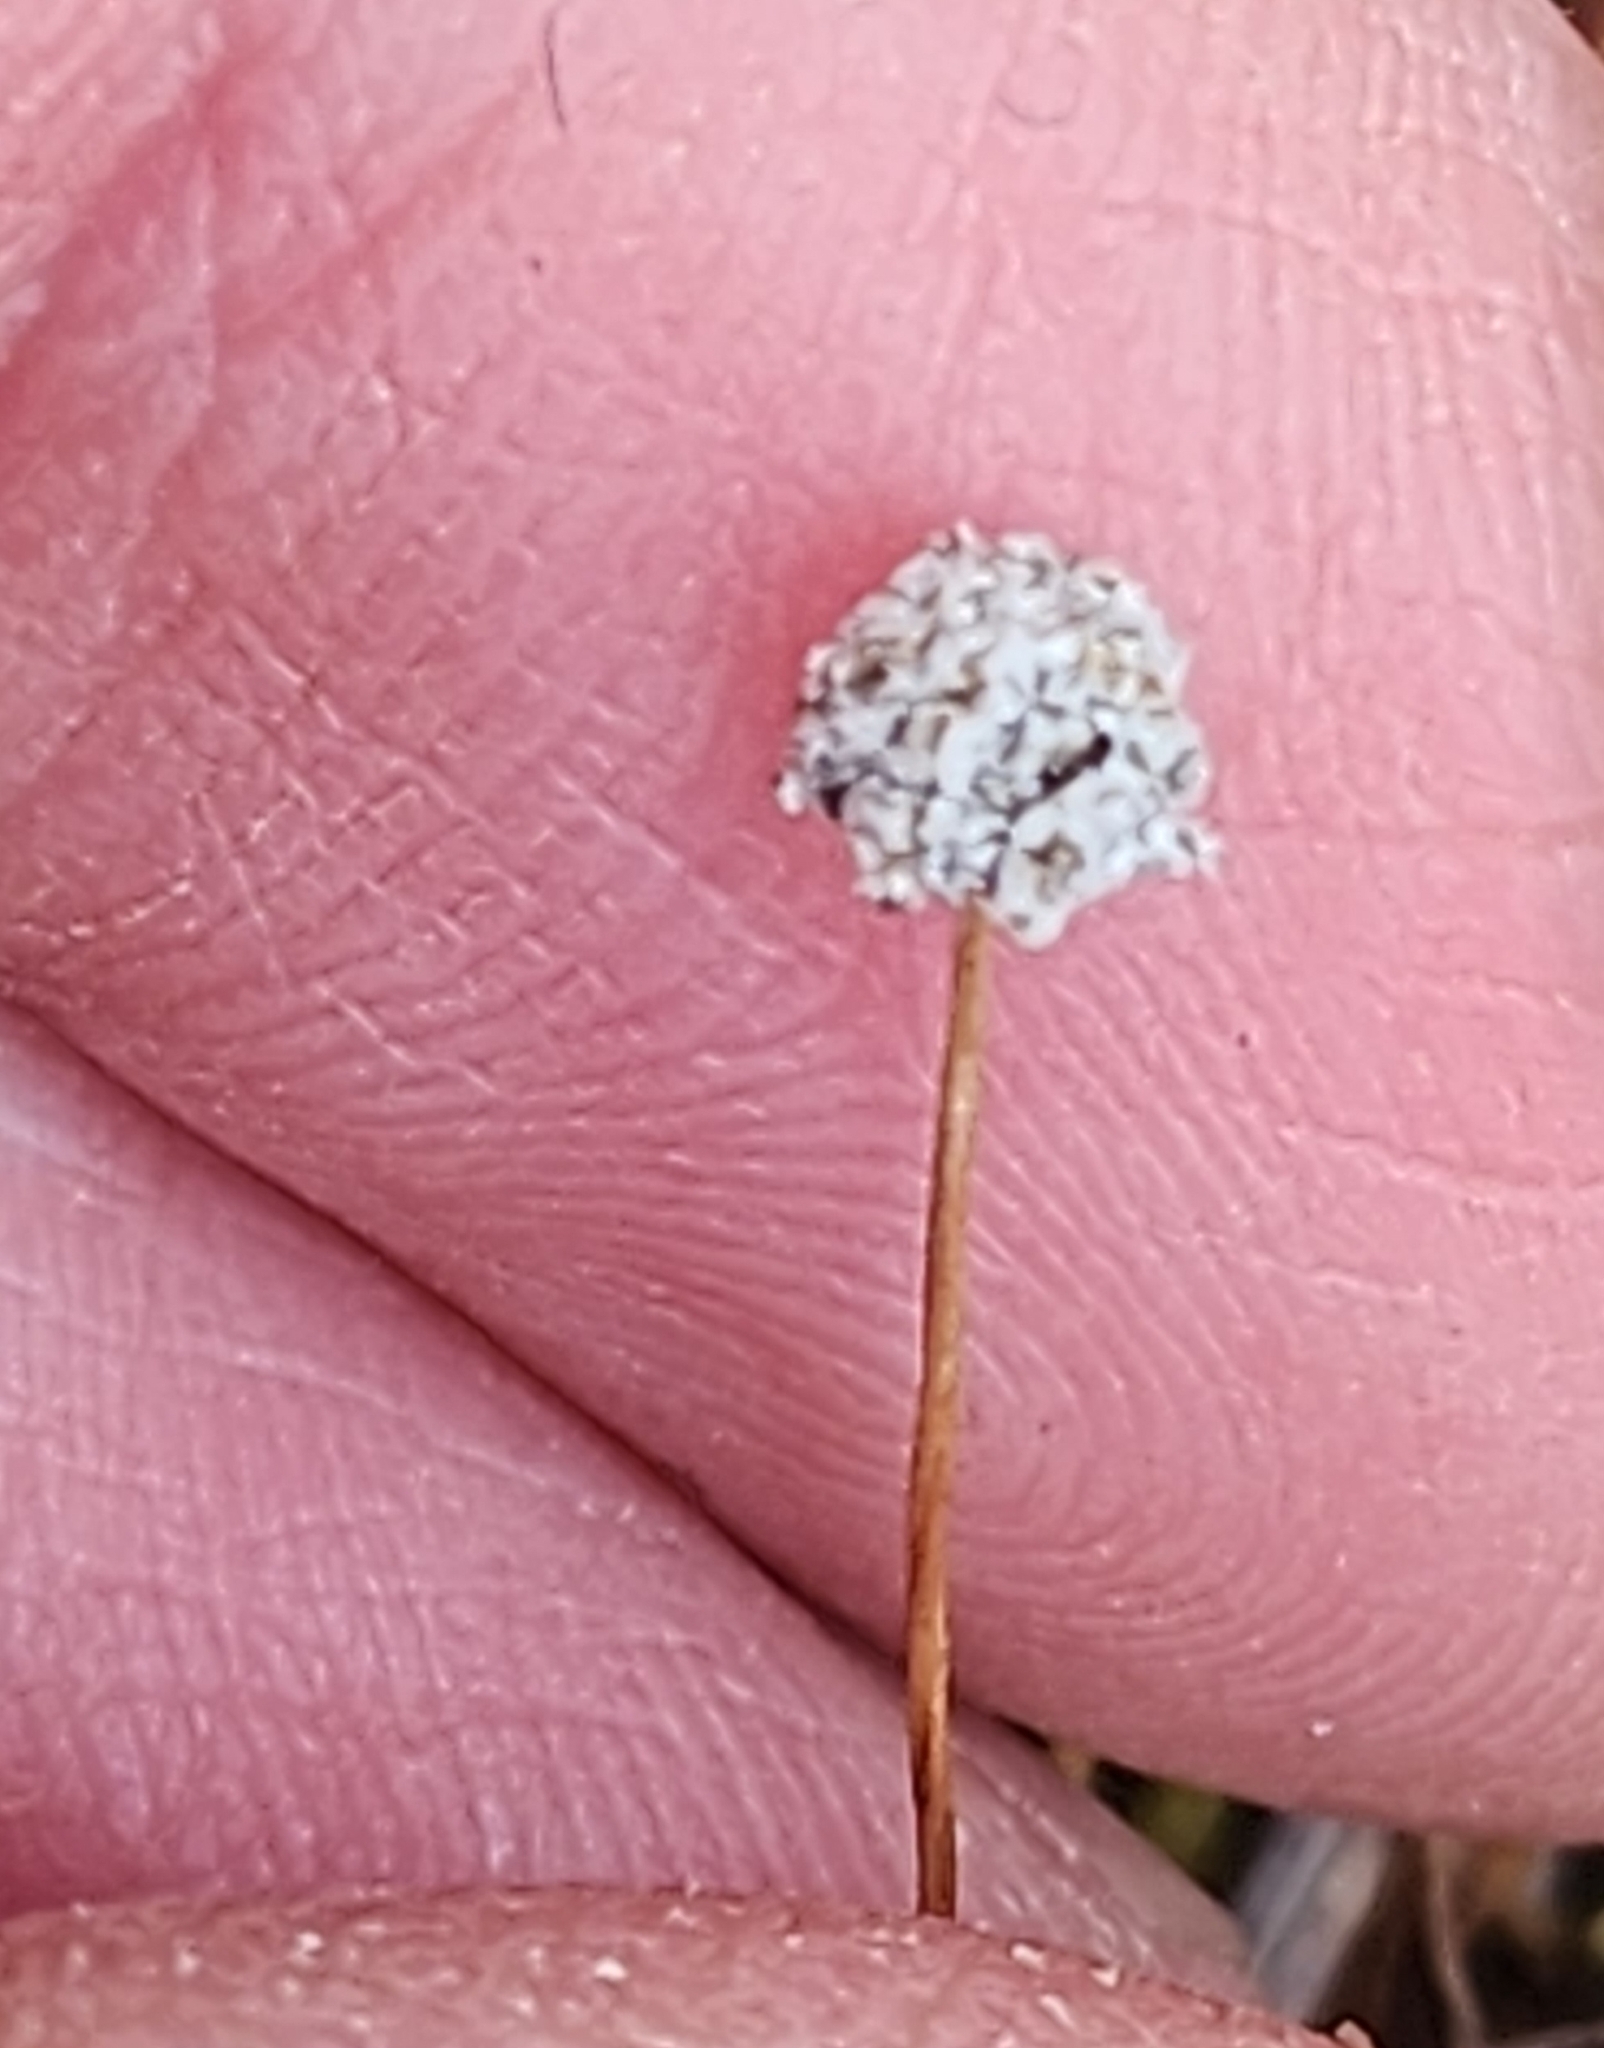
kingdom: Plantae
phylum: Tracheophyta
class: Liliopsida
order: Poales
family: Eriocaulaceae
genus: Eriocaulon
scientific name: Eriocaulon aquaticum
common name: Pipewort
